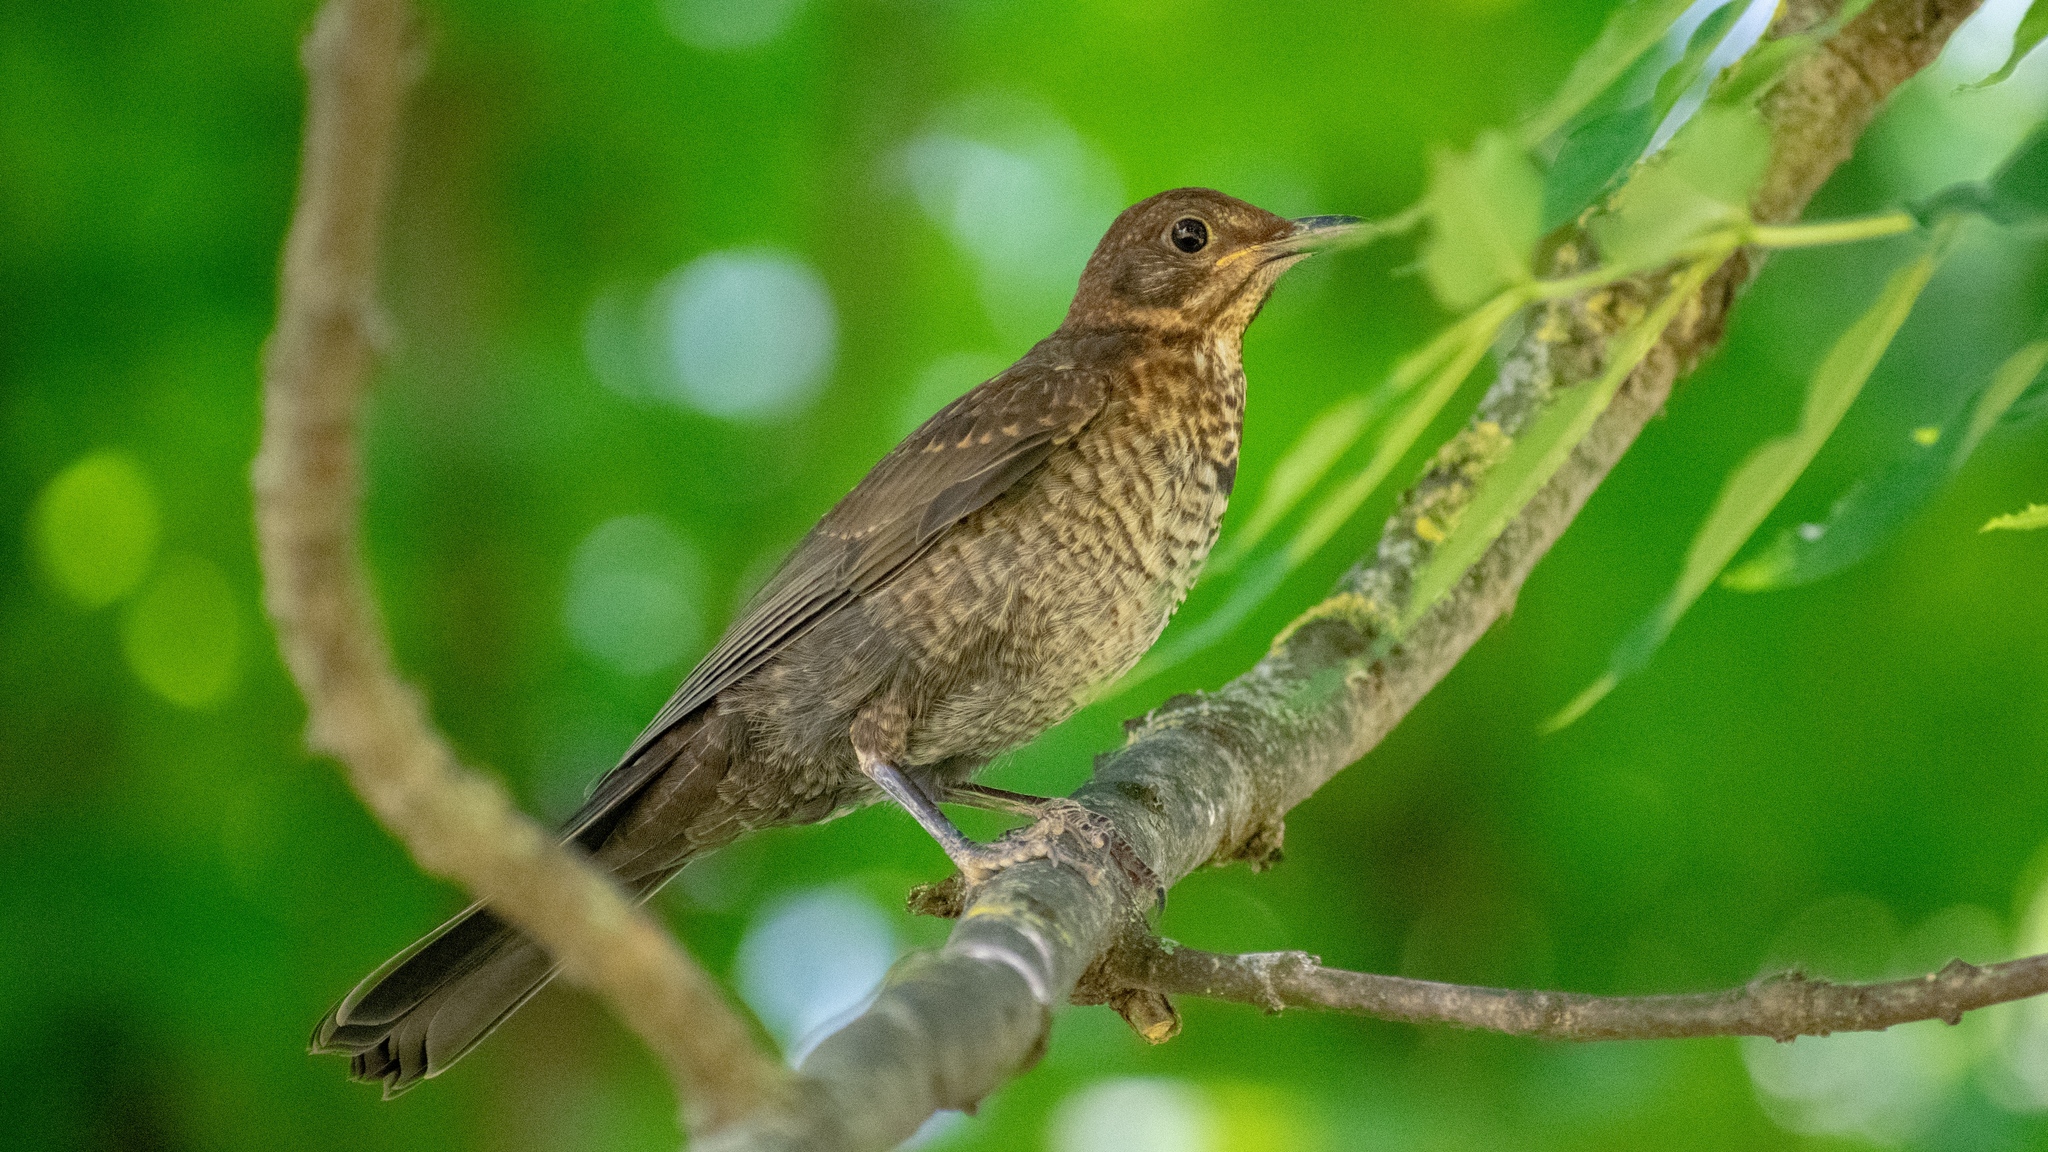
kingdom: Animalia
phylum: Chordata
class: Aves
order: Passeriformes
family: Turdidae
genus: Turdus
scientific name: Turdus merula
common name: Common blackbird
